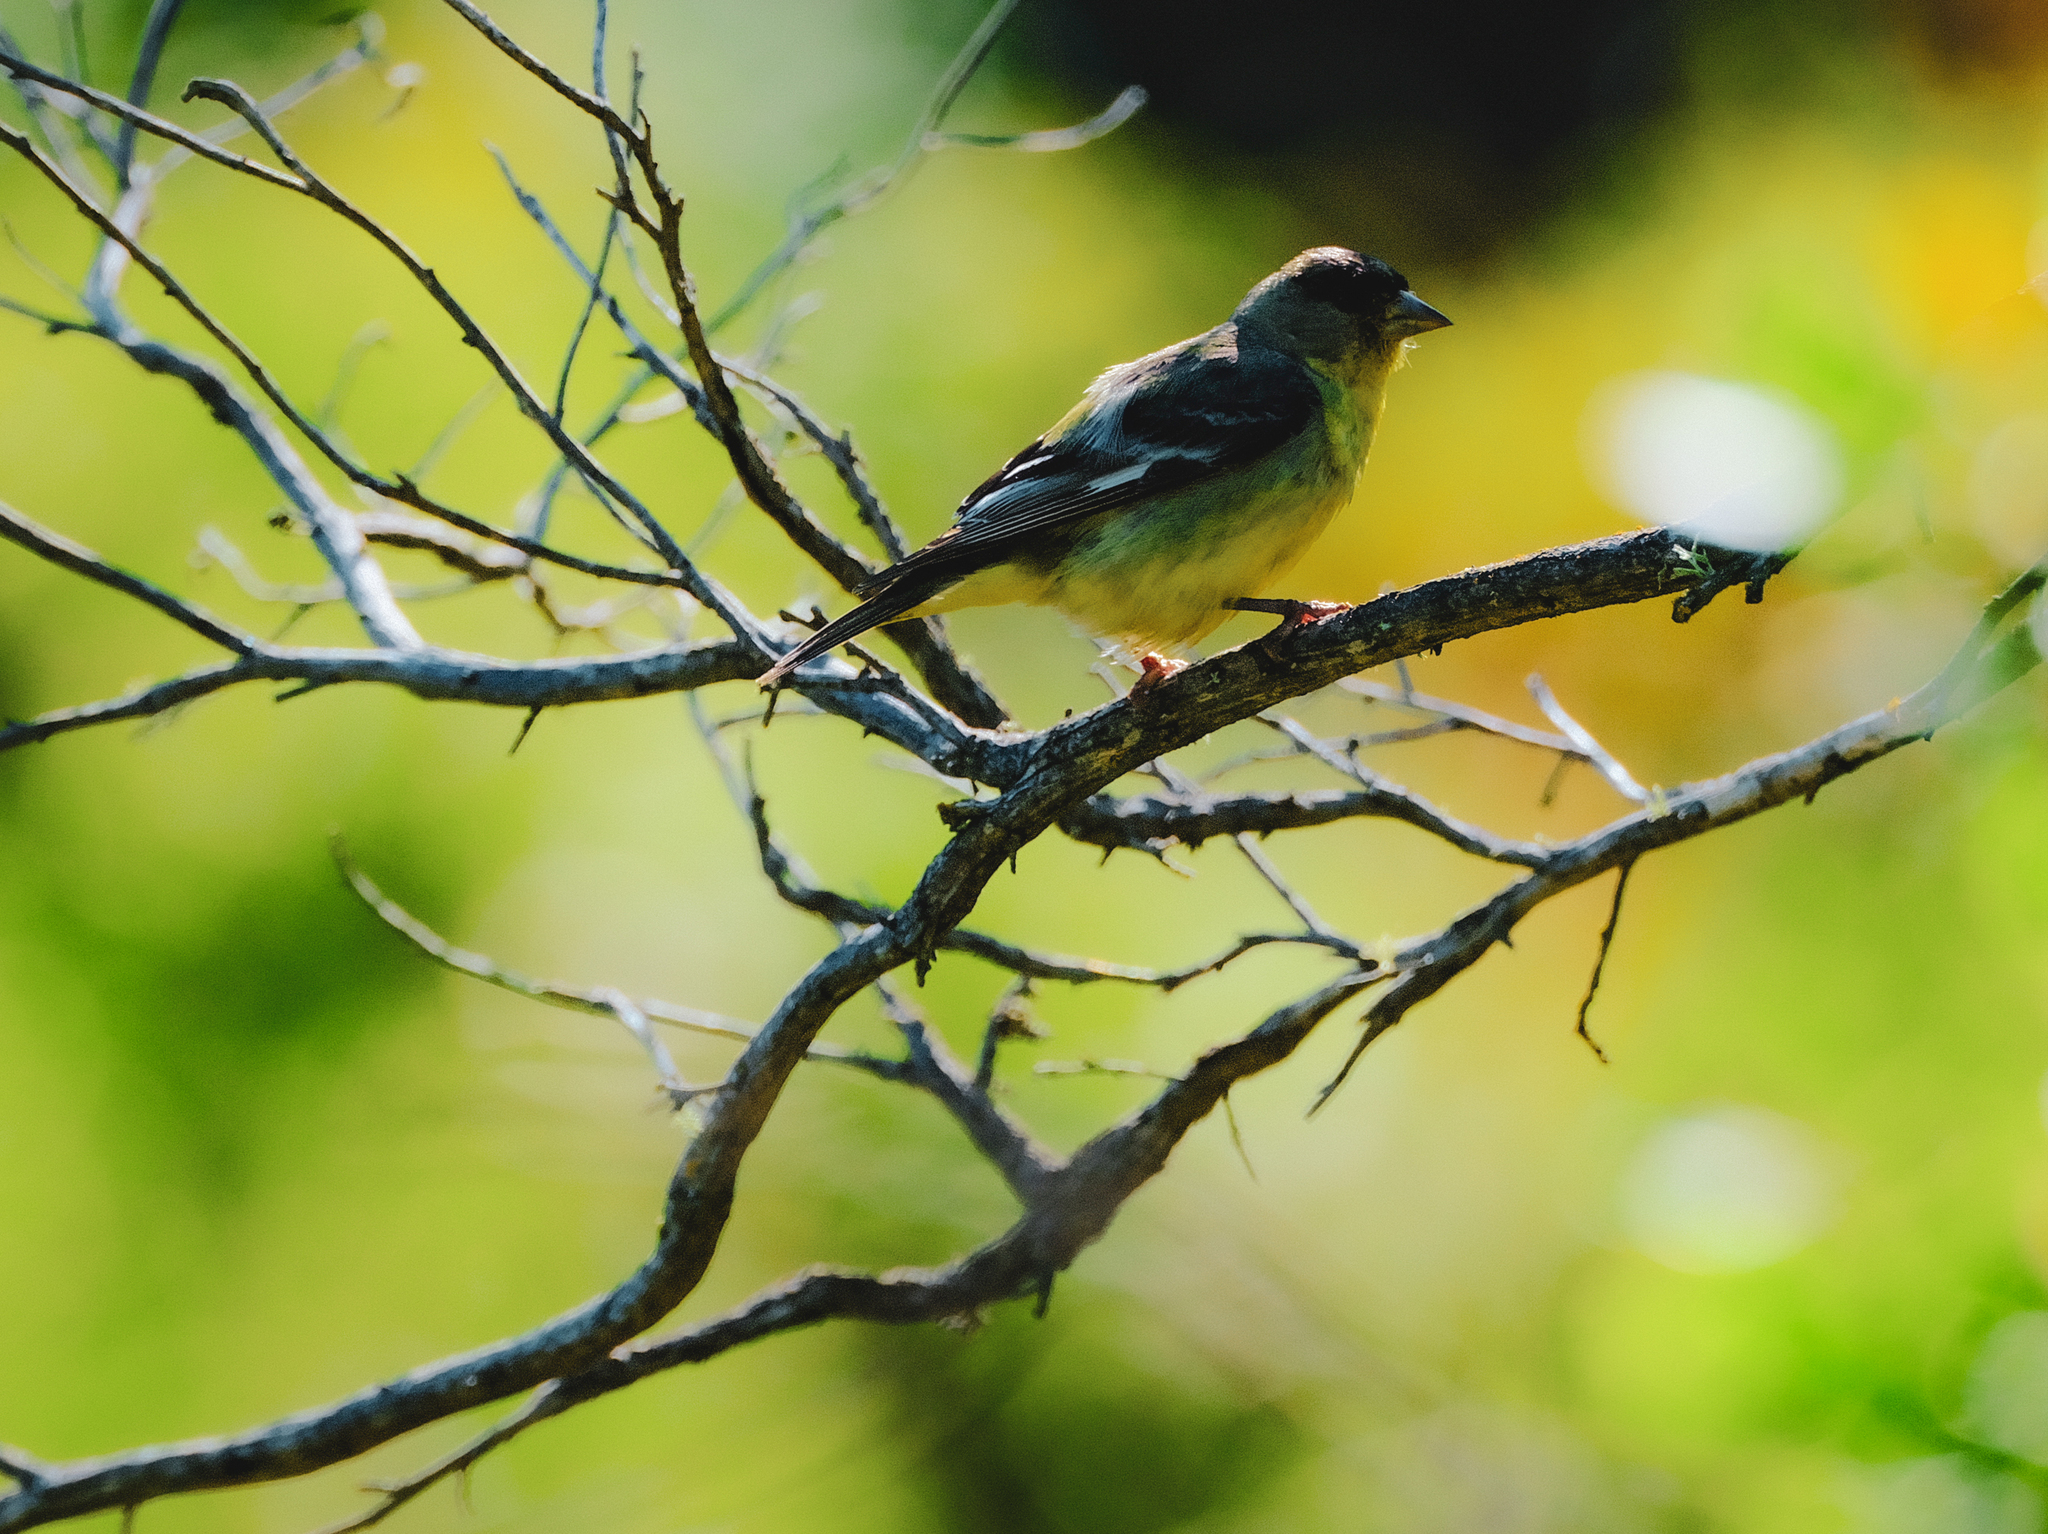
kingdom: Animalia
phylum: Chordata
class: Aves
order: Passeriformes
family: Fringillidae
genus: Spinus
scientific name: Spinus psaltria
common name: Lesser goldfinch
